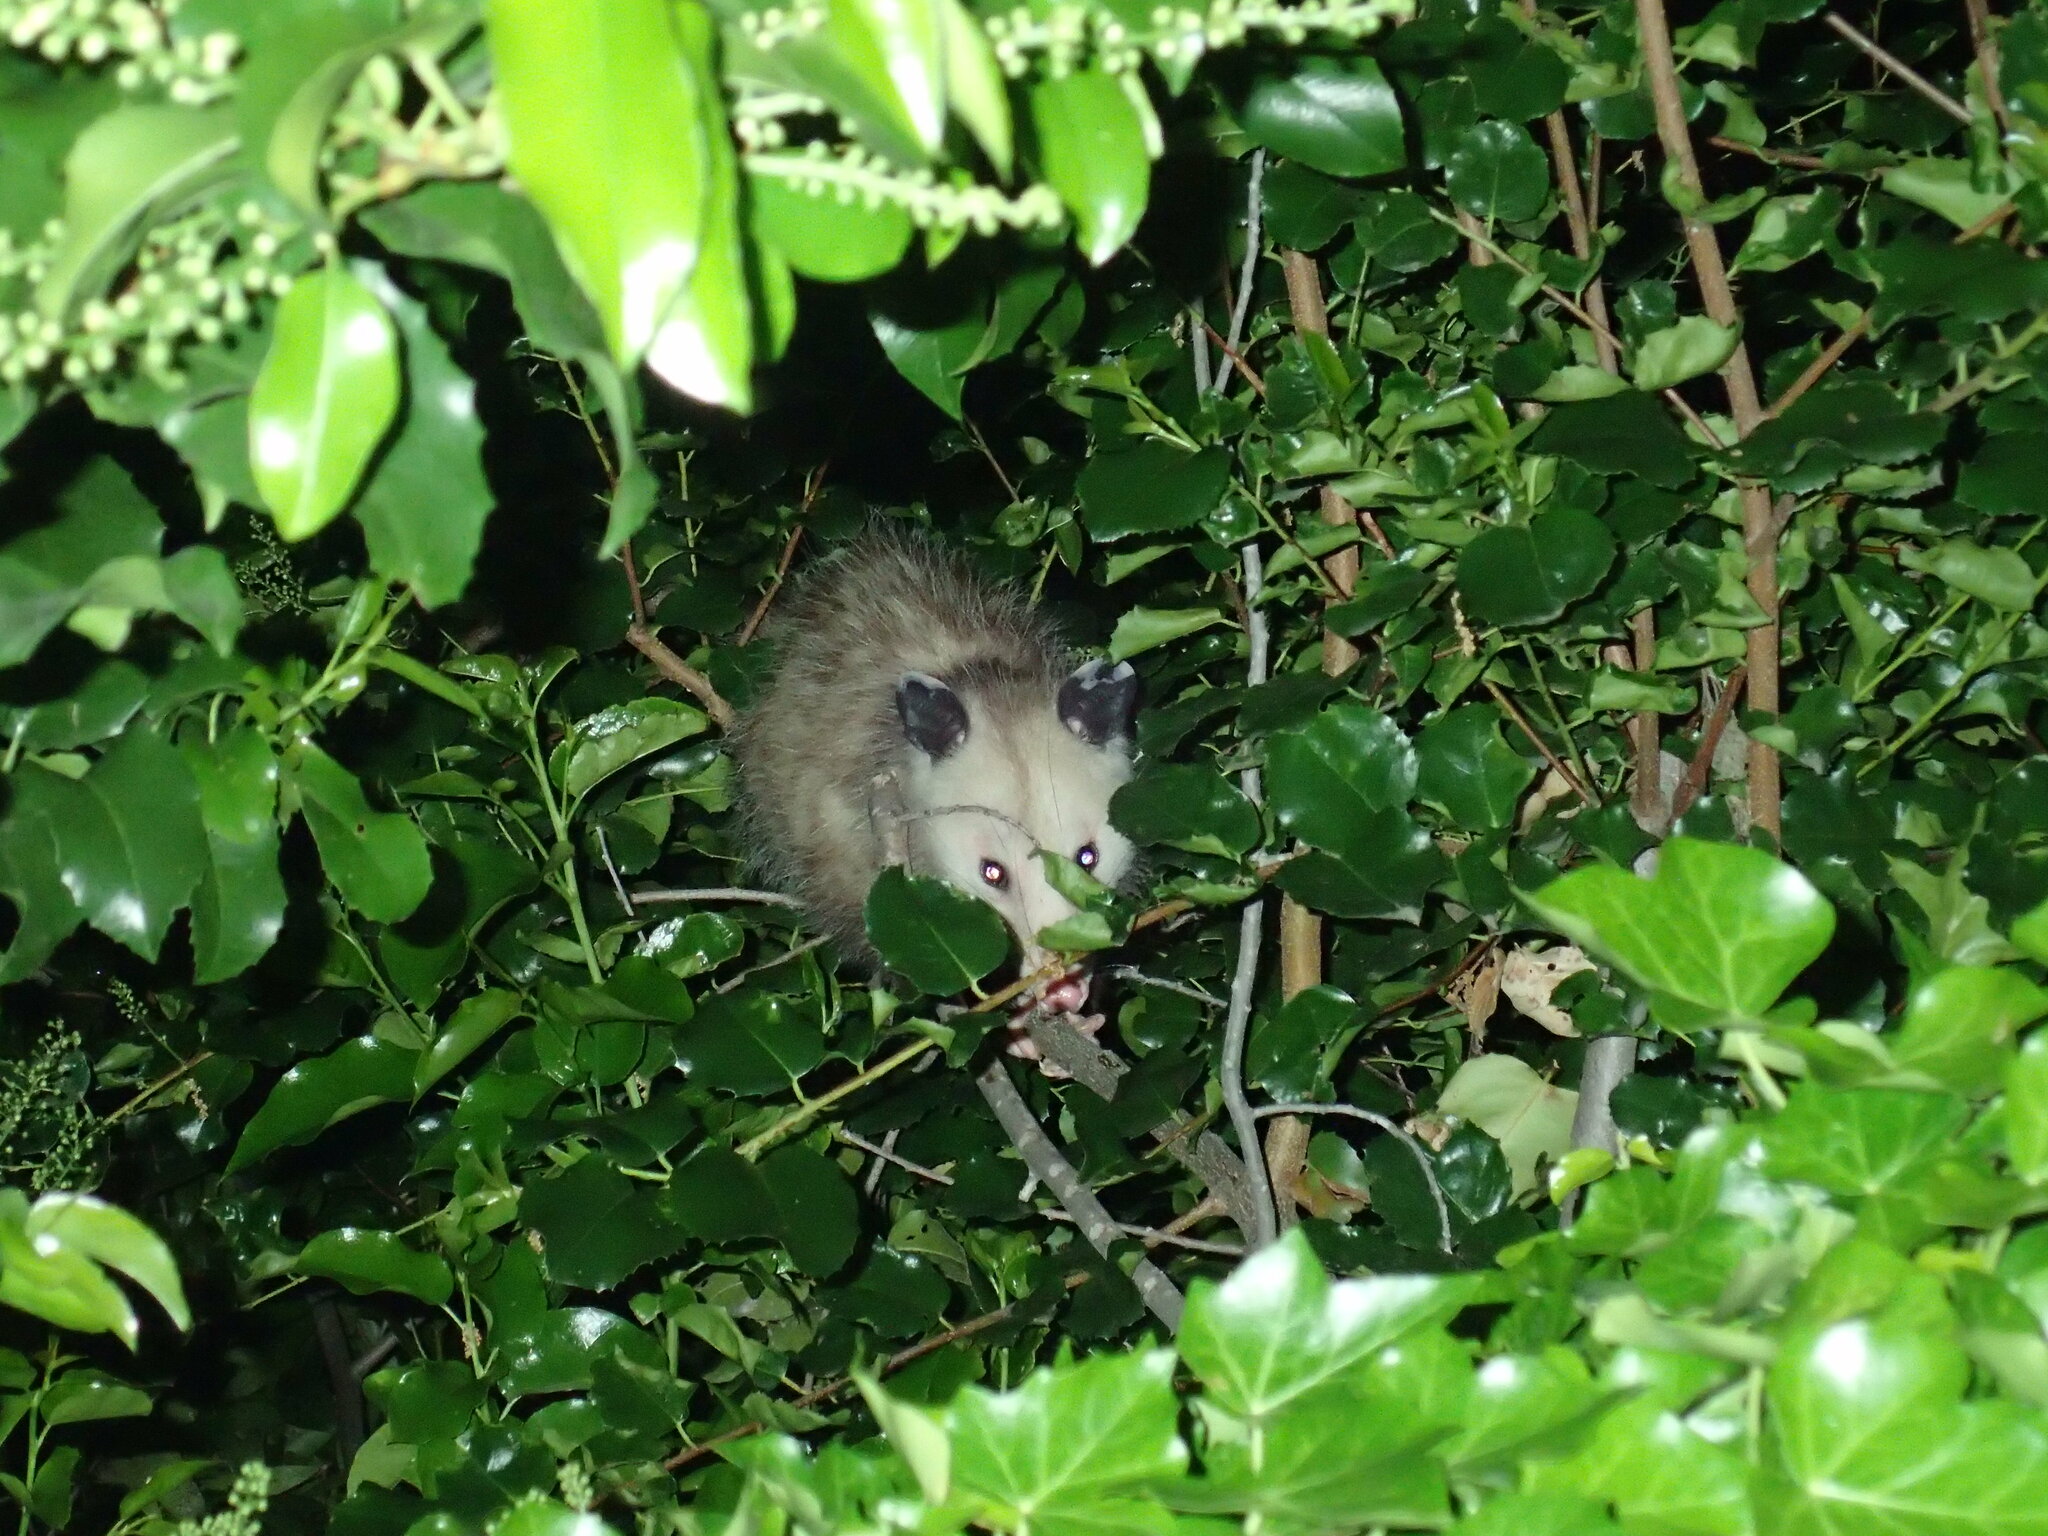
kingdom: Animalia
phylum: Chordata
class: Mammalia
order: Didelphimorphia
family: Didelphidae
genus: Didelphis
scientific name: Didelphis virginiana
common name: Virginia opossum
